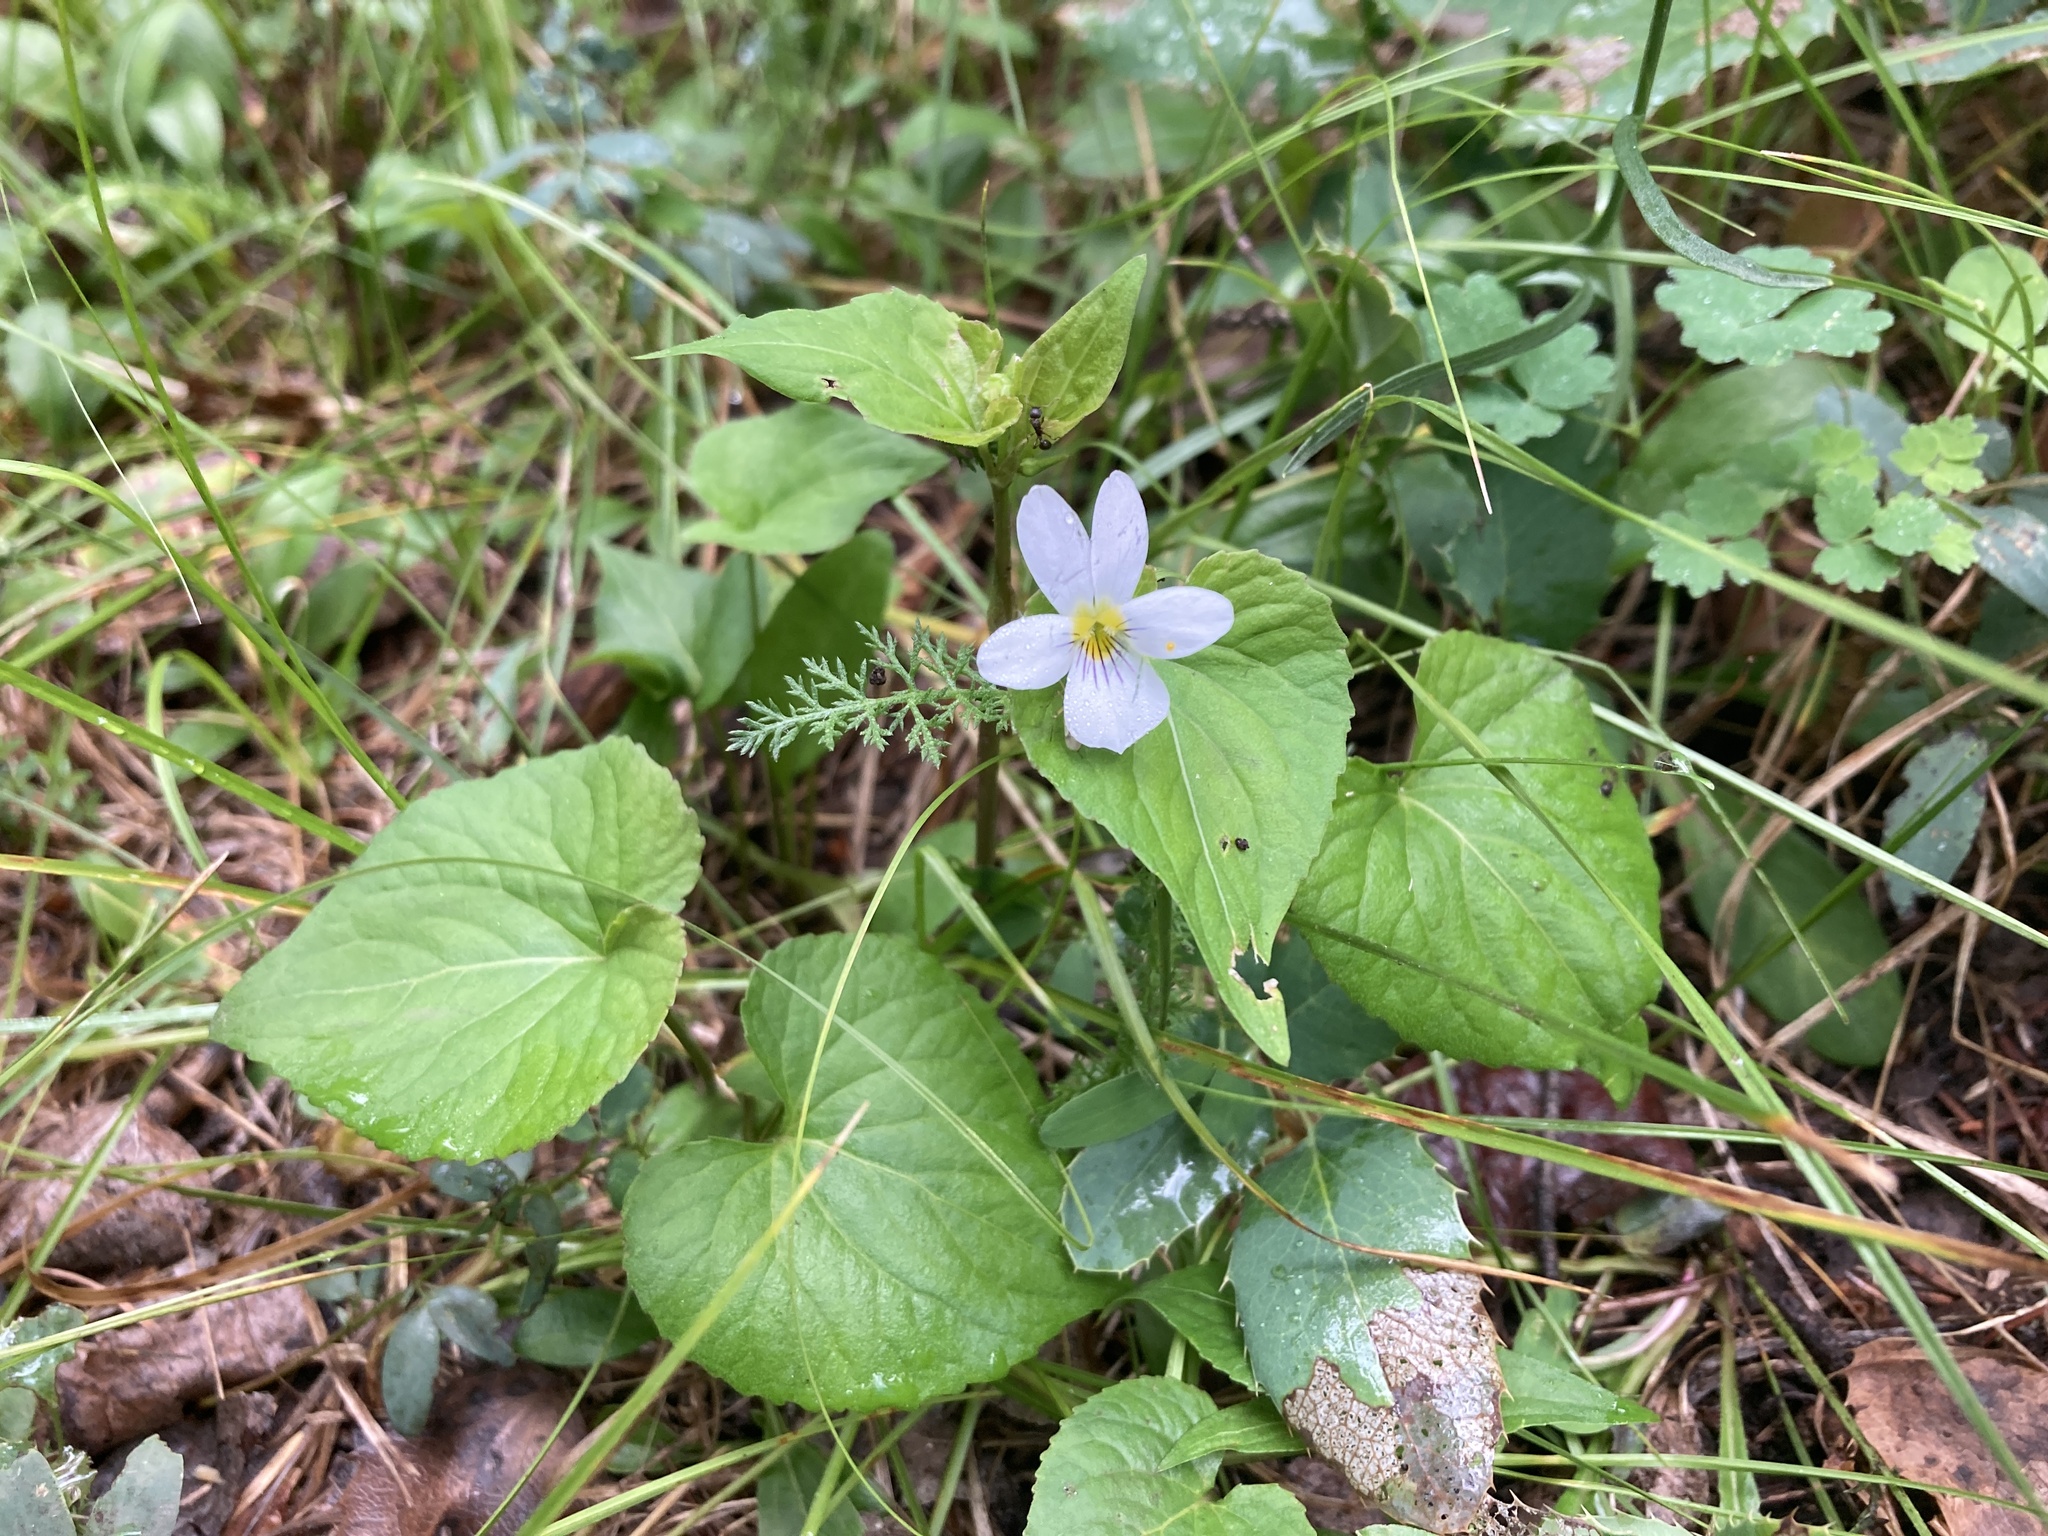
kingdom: Plantae
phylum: Tracheophyta
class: Magnoliopsida
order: Malpighiales
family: Violaceae
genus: Viola
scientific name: Viola canadensis
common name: Canada violet
